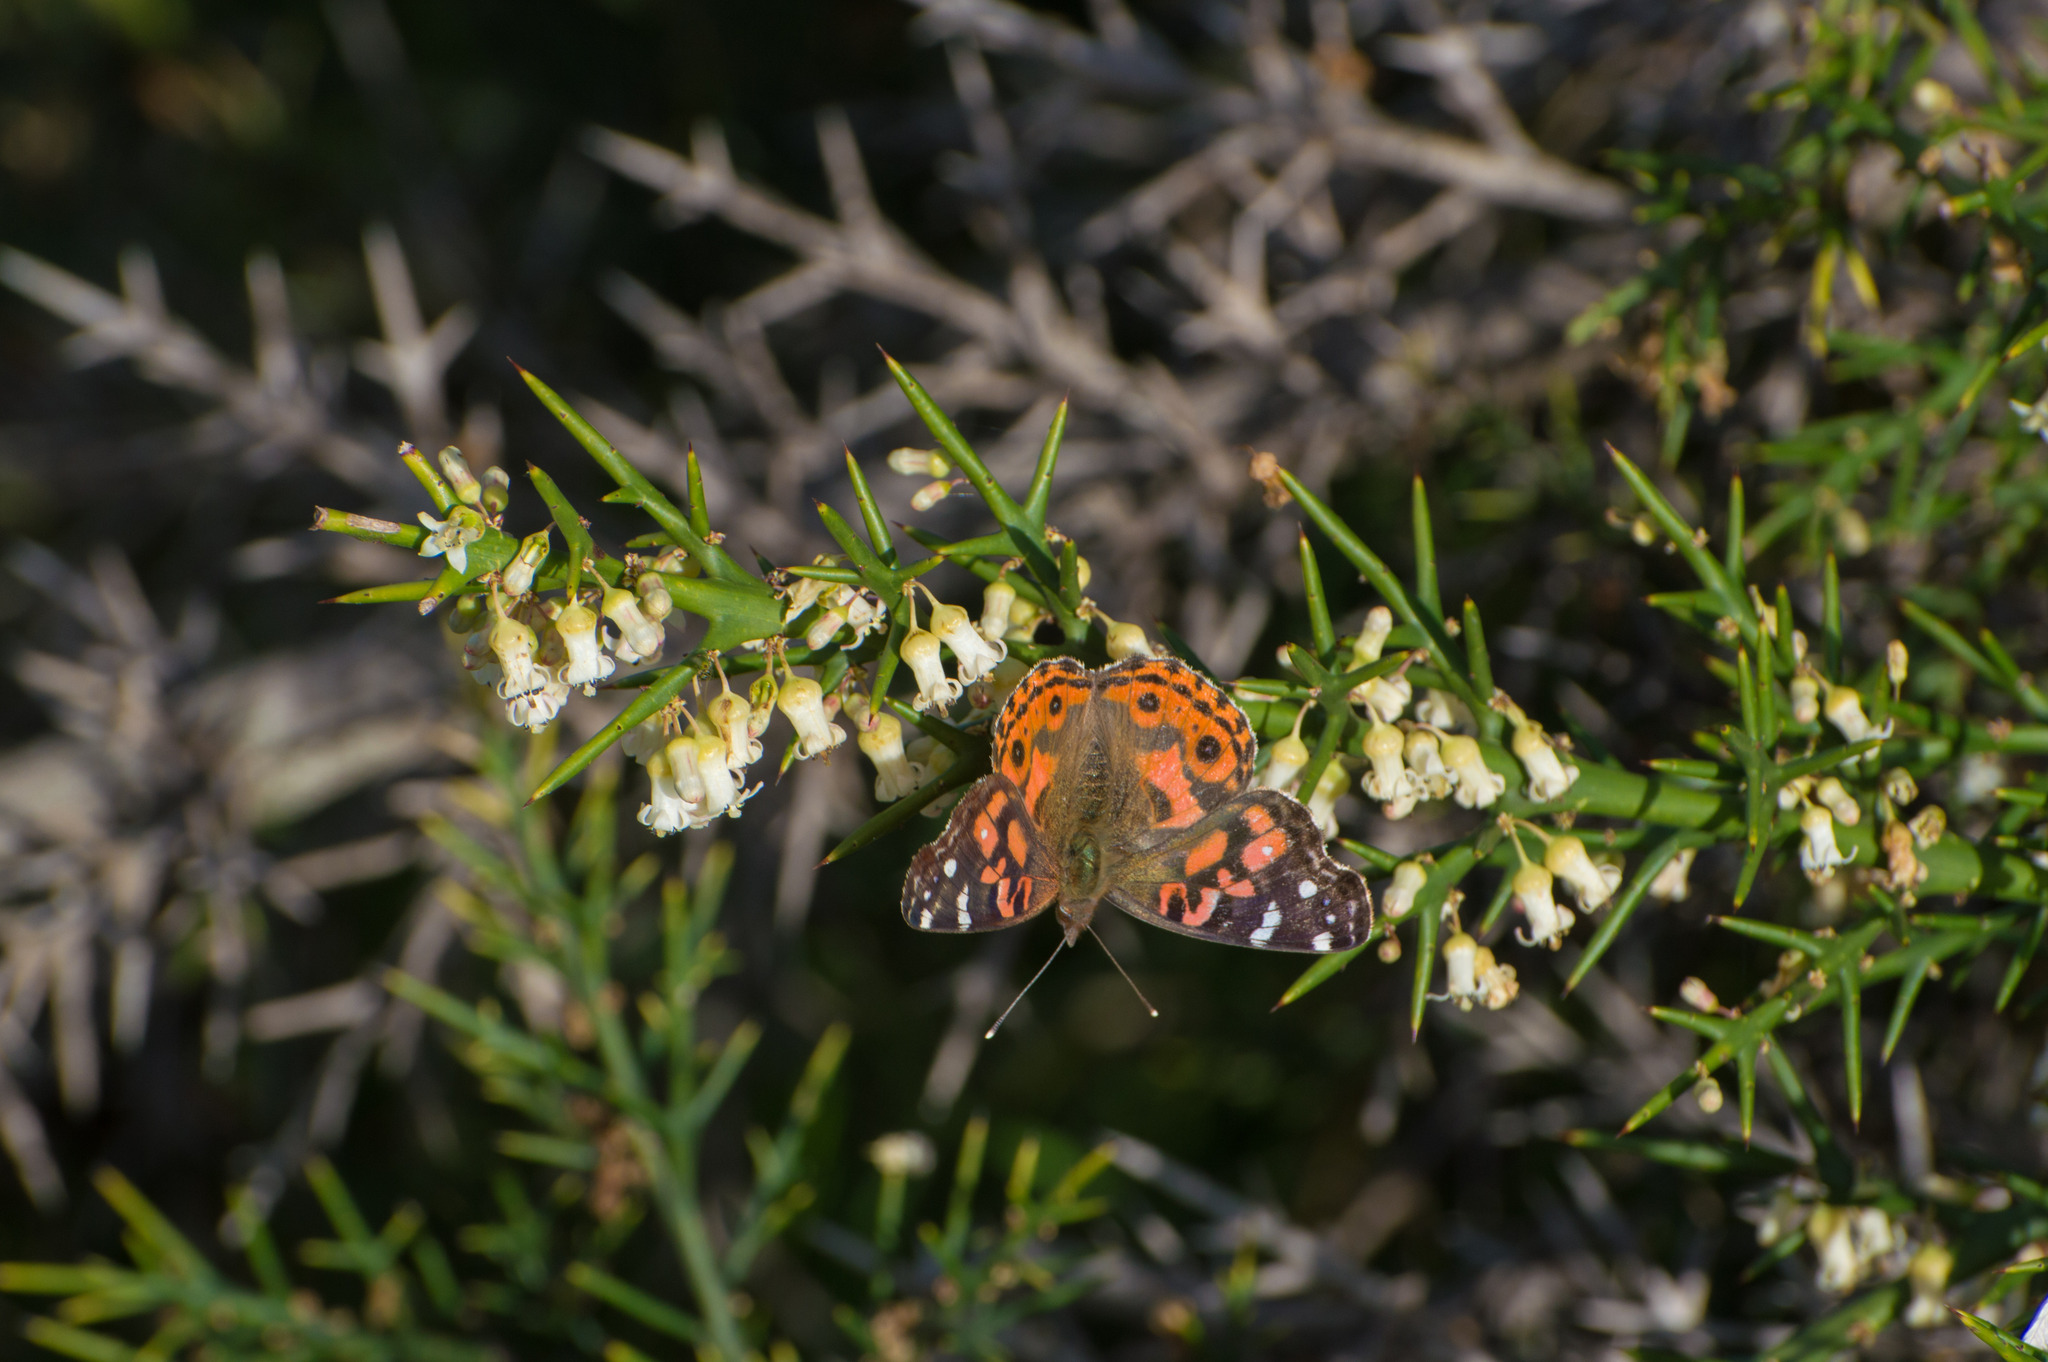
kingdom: Animalia
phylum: Arthropoda
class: Insecta
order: Lepidoptera
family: Nymphalidae
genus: Vanessa
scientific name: Vanessa braziliensis
